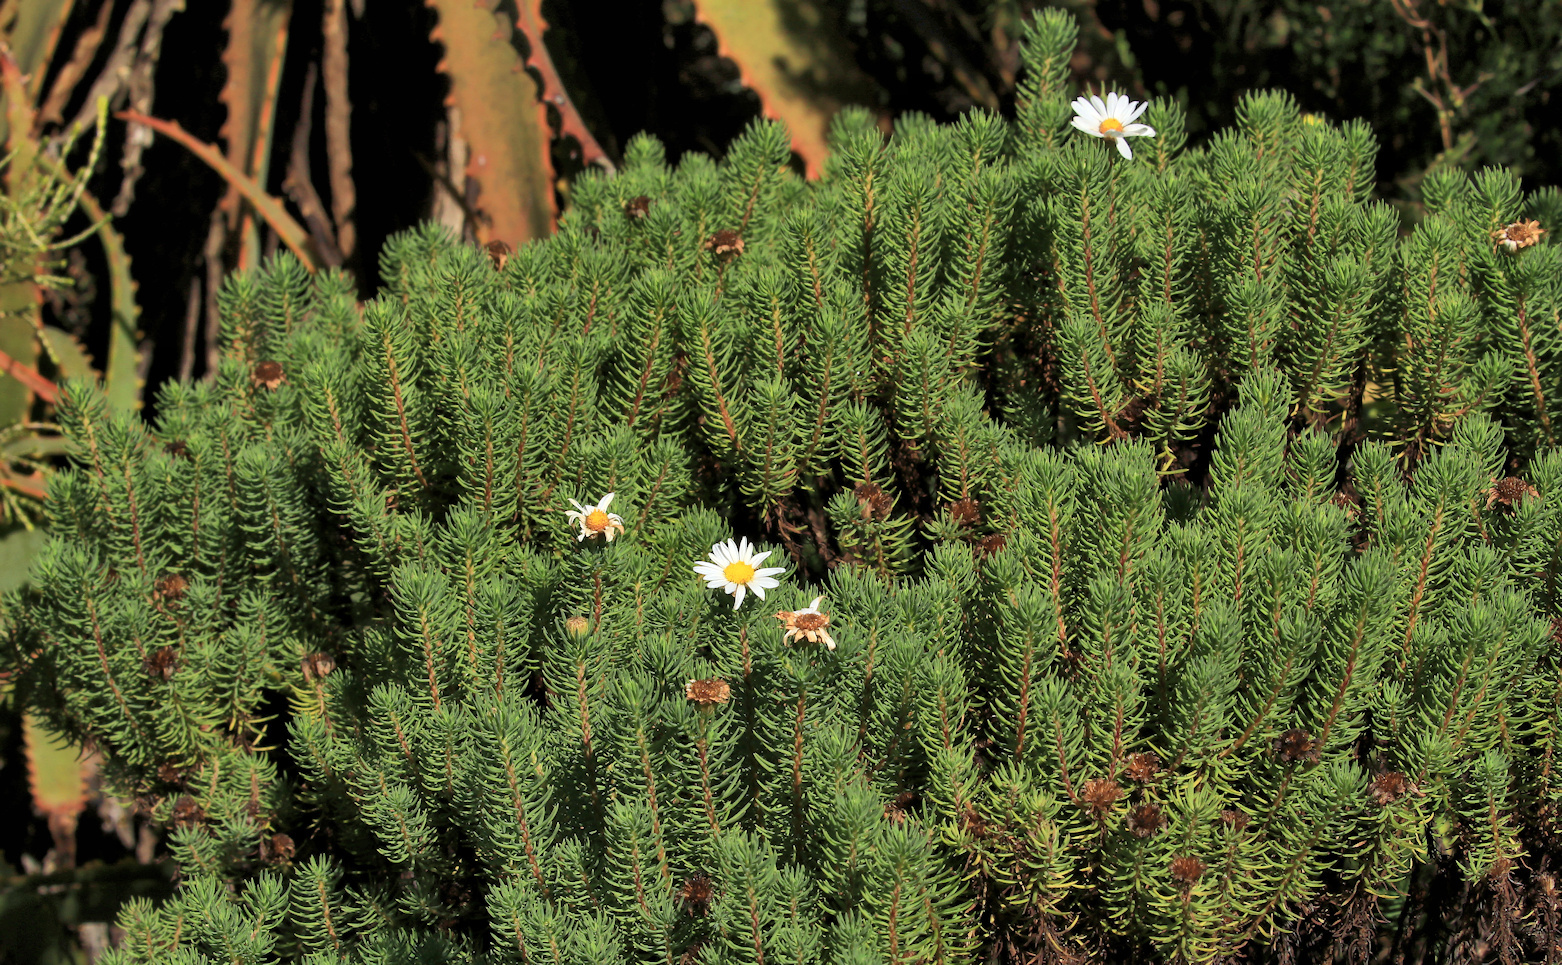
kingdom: Plantae
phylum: Tracheophyta
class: Magnoliopsida
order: Asterales
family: Asteraceae
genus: Eumorphia
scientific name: Eumorphia davyi
